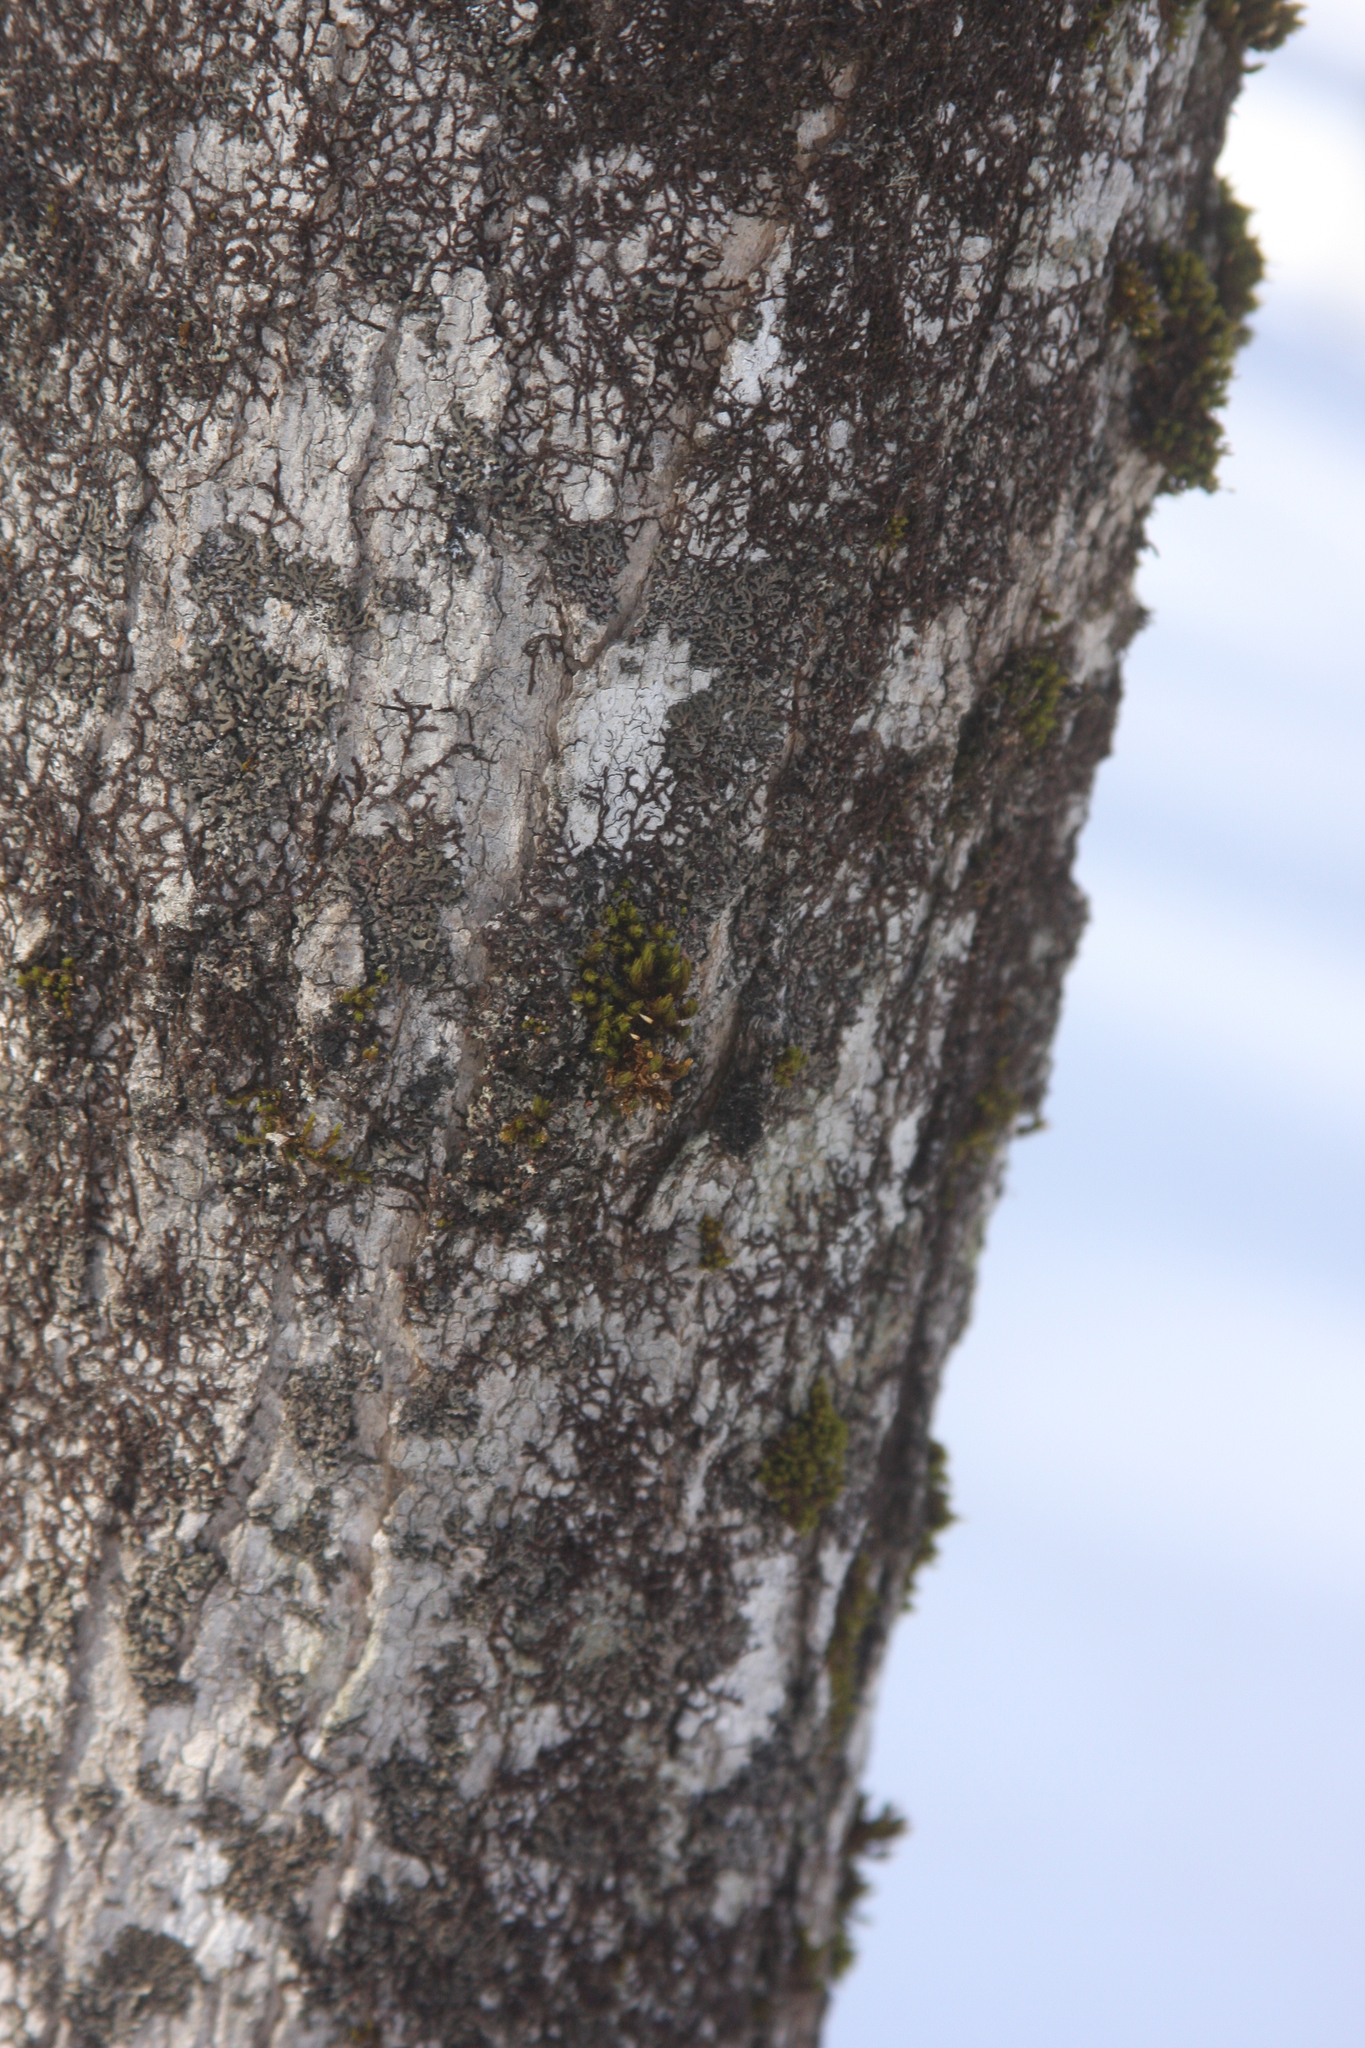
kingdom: Plantae
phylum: Bryophyta
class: Bryopsida
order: Orthotrichales
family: Orthotrichaceae
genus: Ulota
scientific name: Ulota crispa
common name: Crisped pincushion moss
